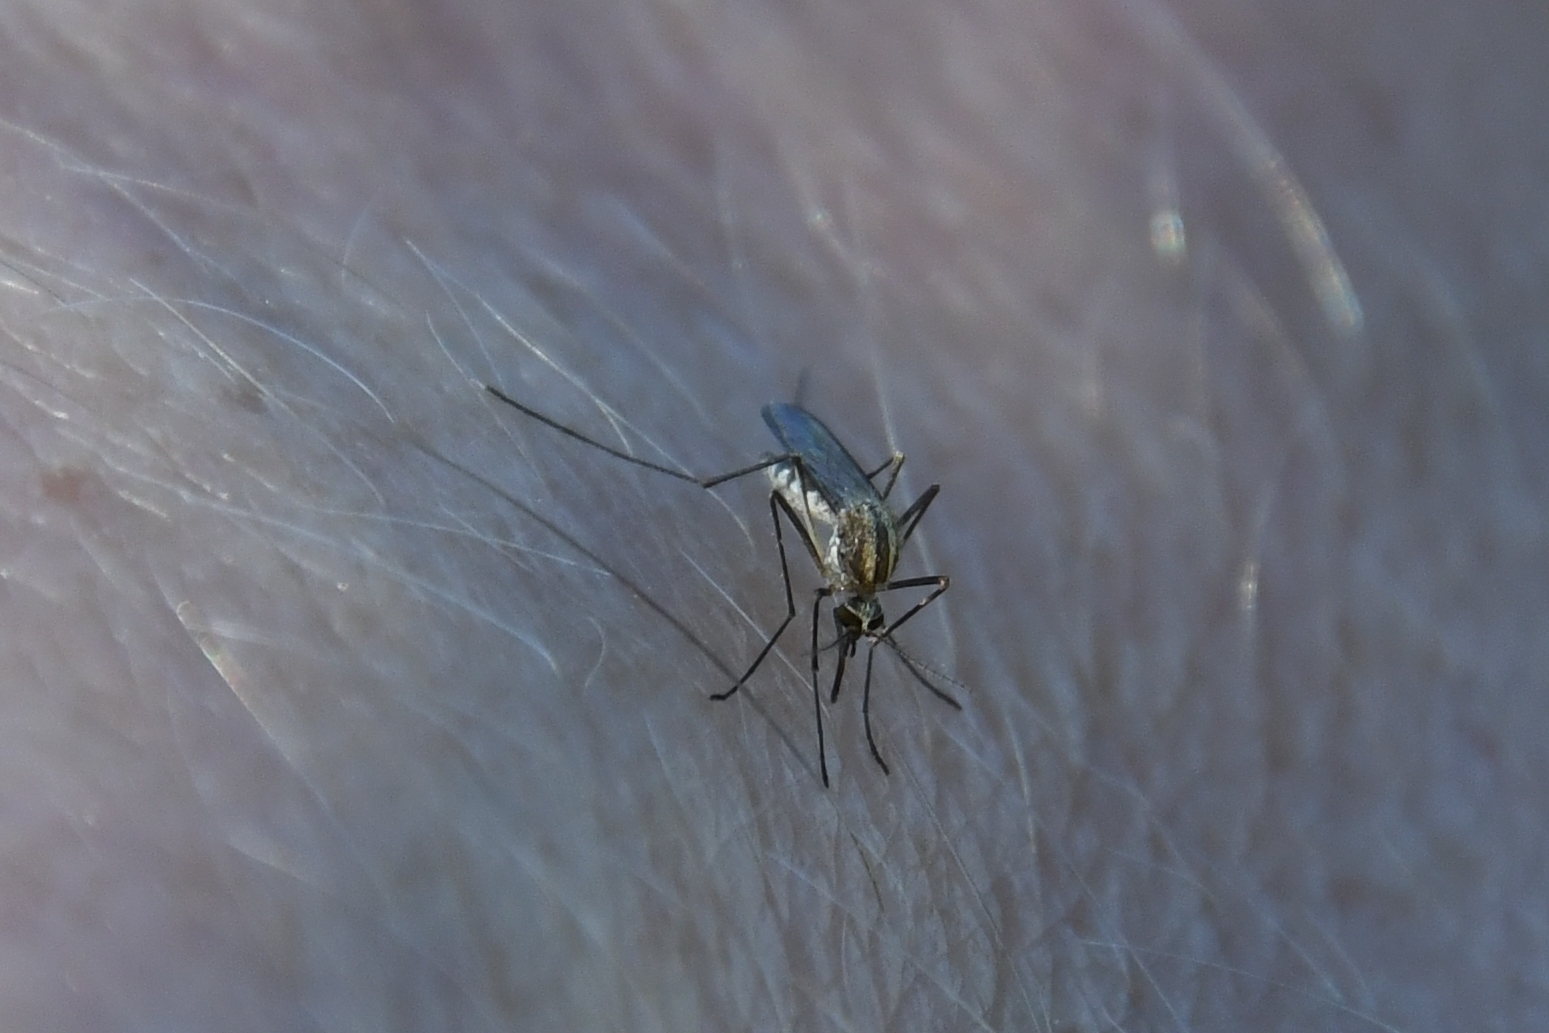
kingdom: Animalia
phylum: Arthropoda
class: Insecta
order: Diptera
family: Culicidae
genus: Aedes
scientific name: Aedes trivittatus
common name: Plains floodwater mosquito
